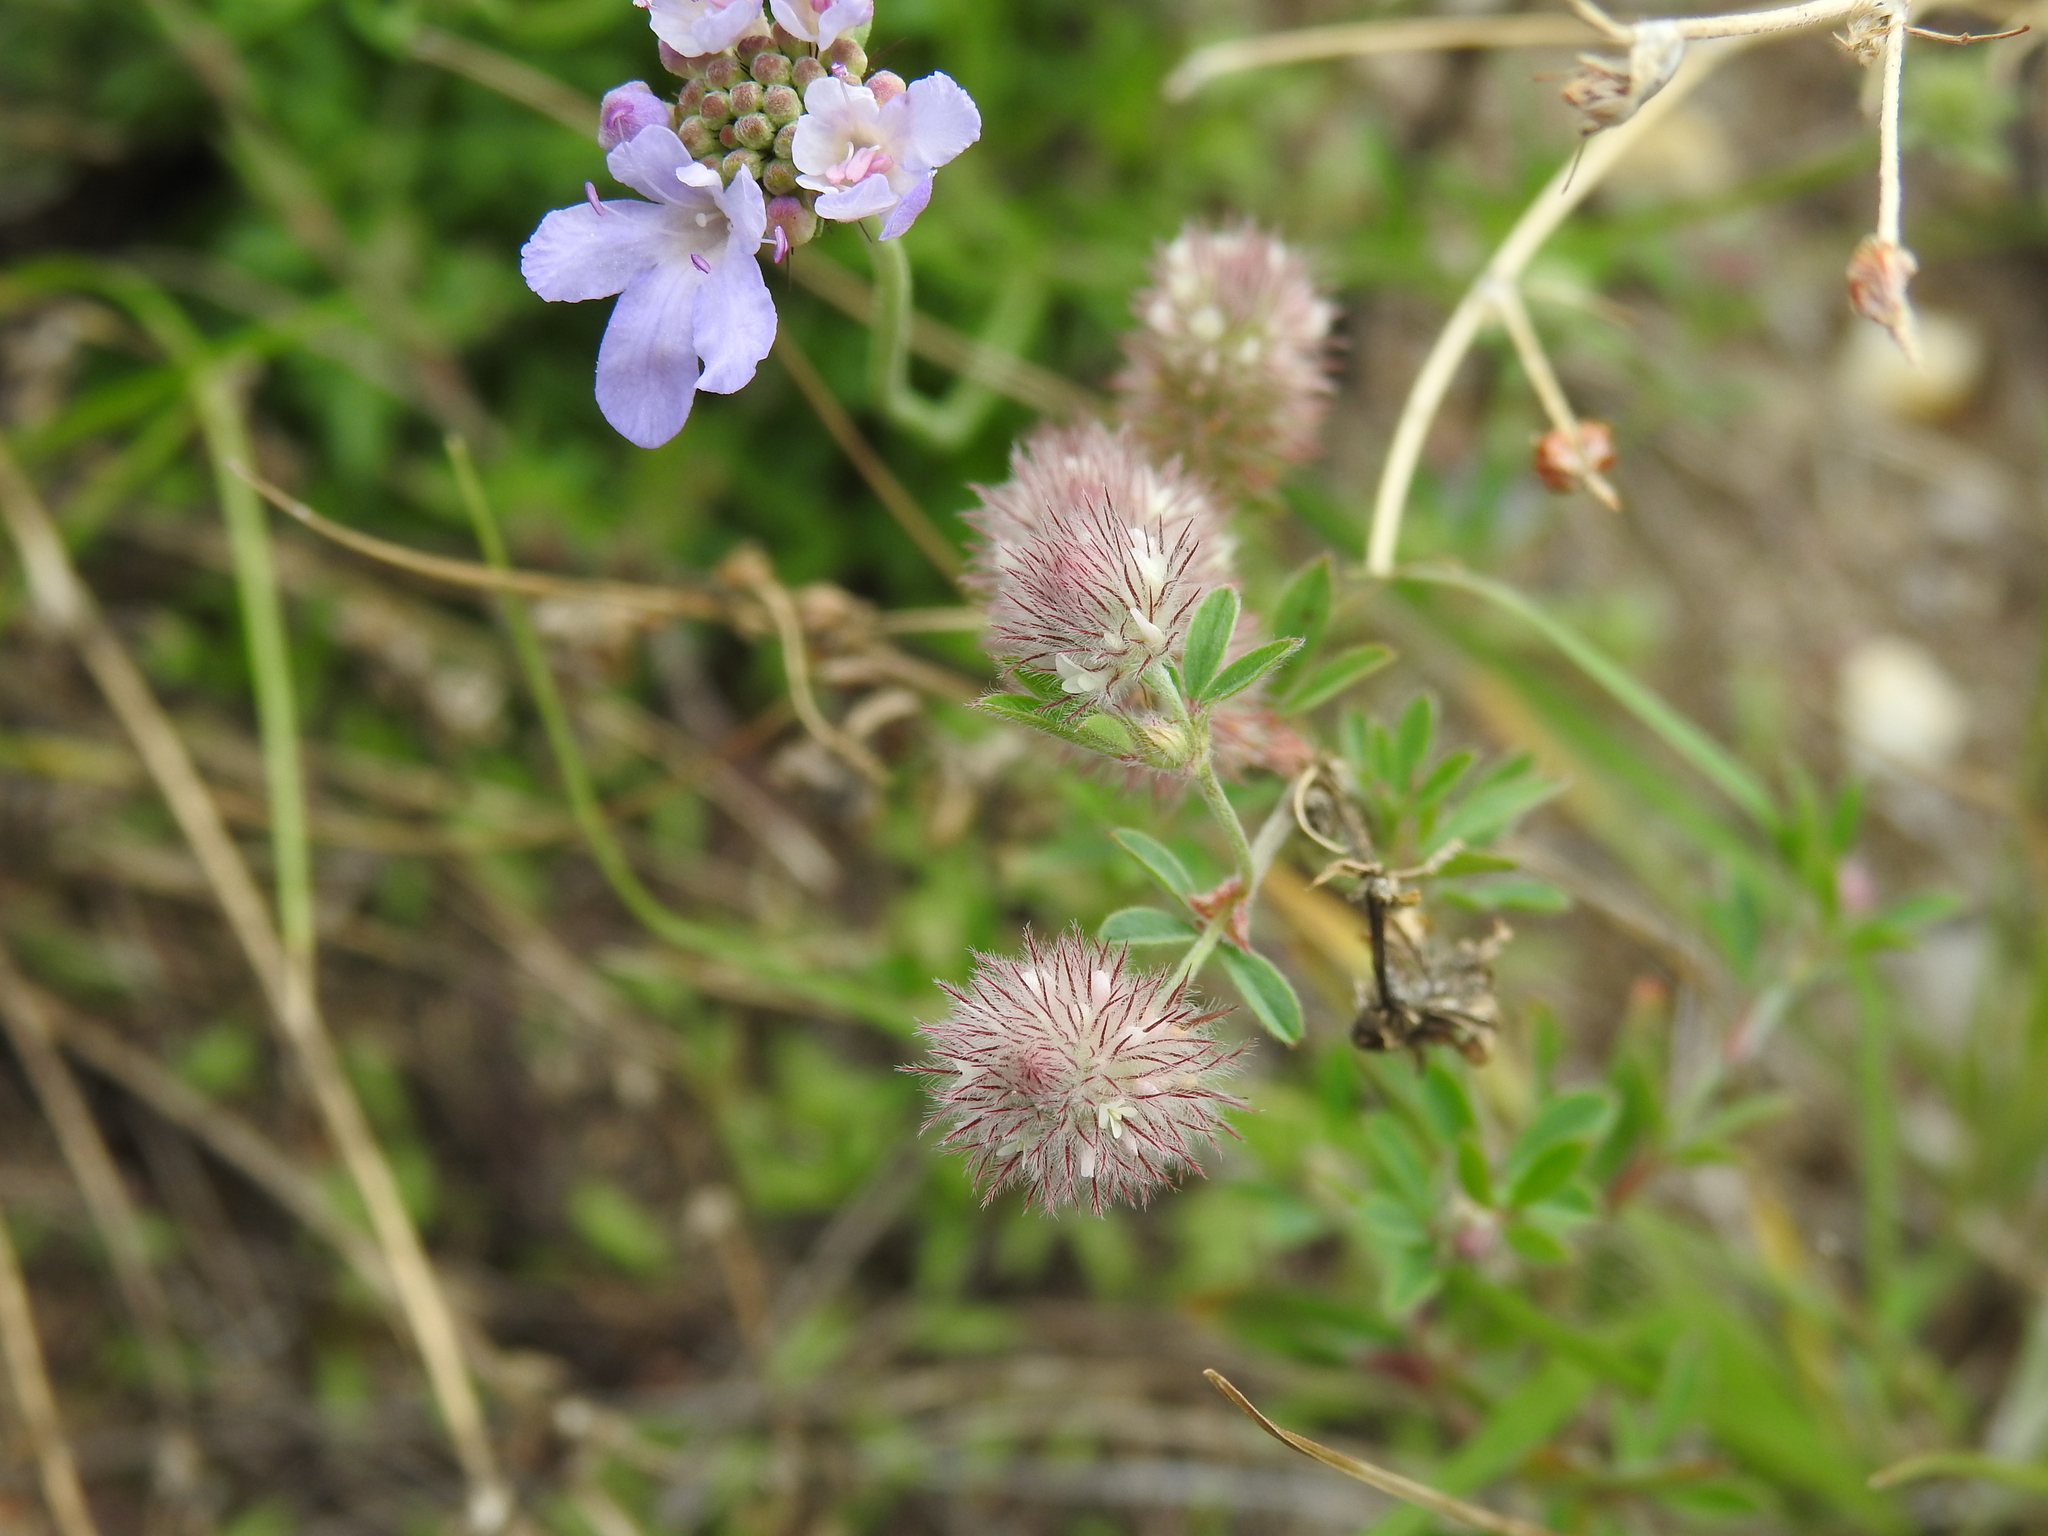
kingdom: Plantae
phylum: Tracheophyta
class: Magnoliopsida
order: Fabales
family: Fabaceae
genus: Trifolium
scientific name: Trifolium arvense
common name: Hare's-foot clover
